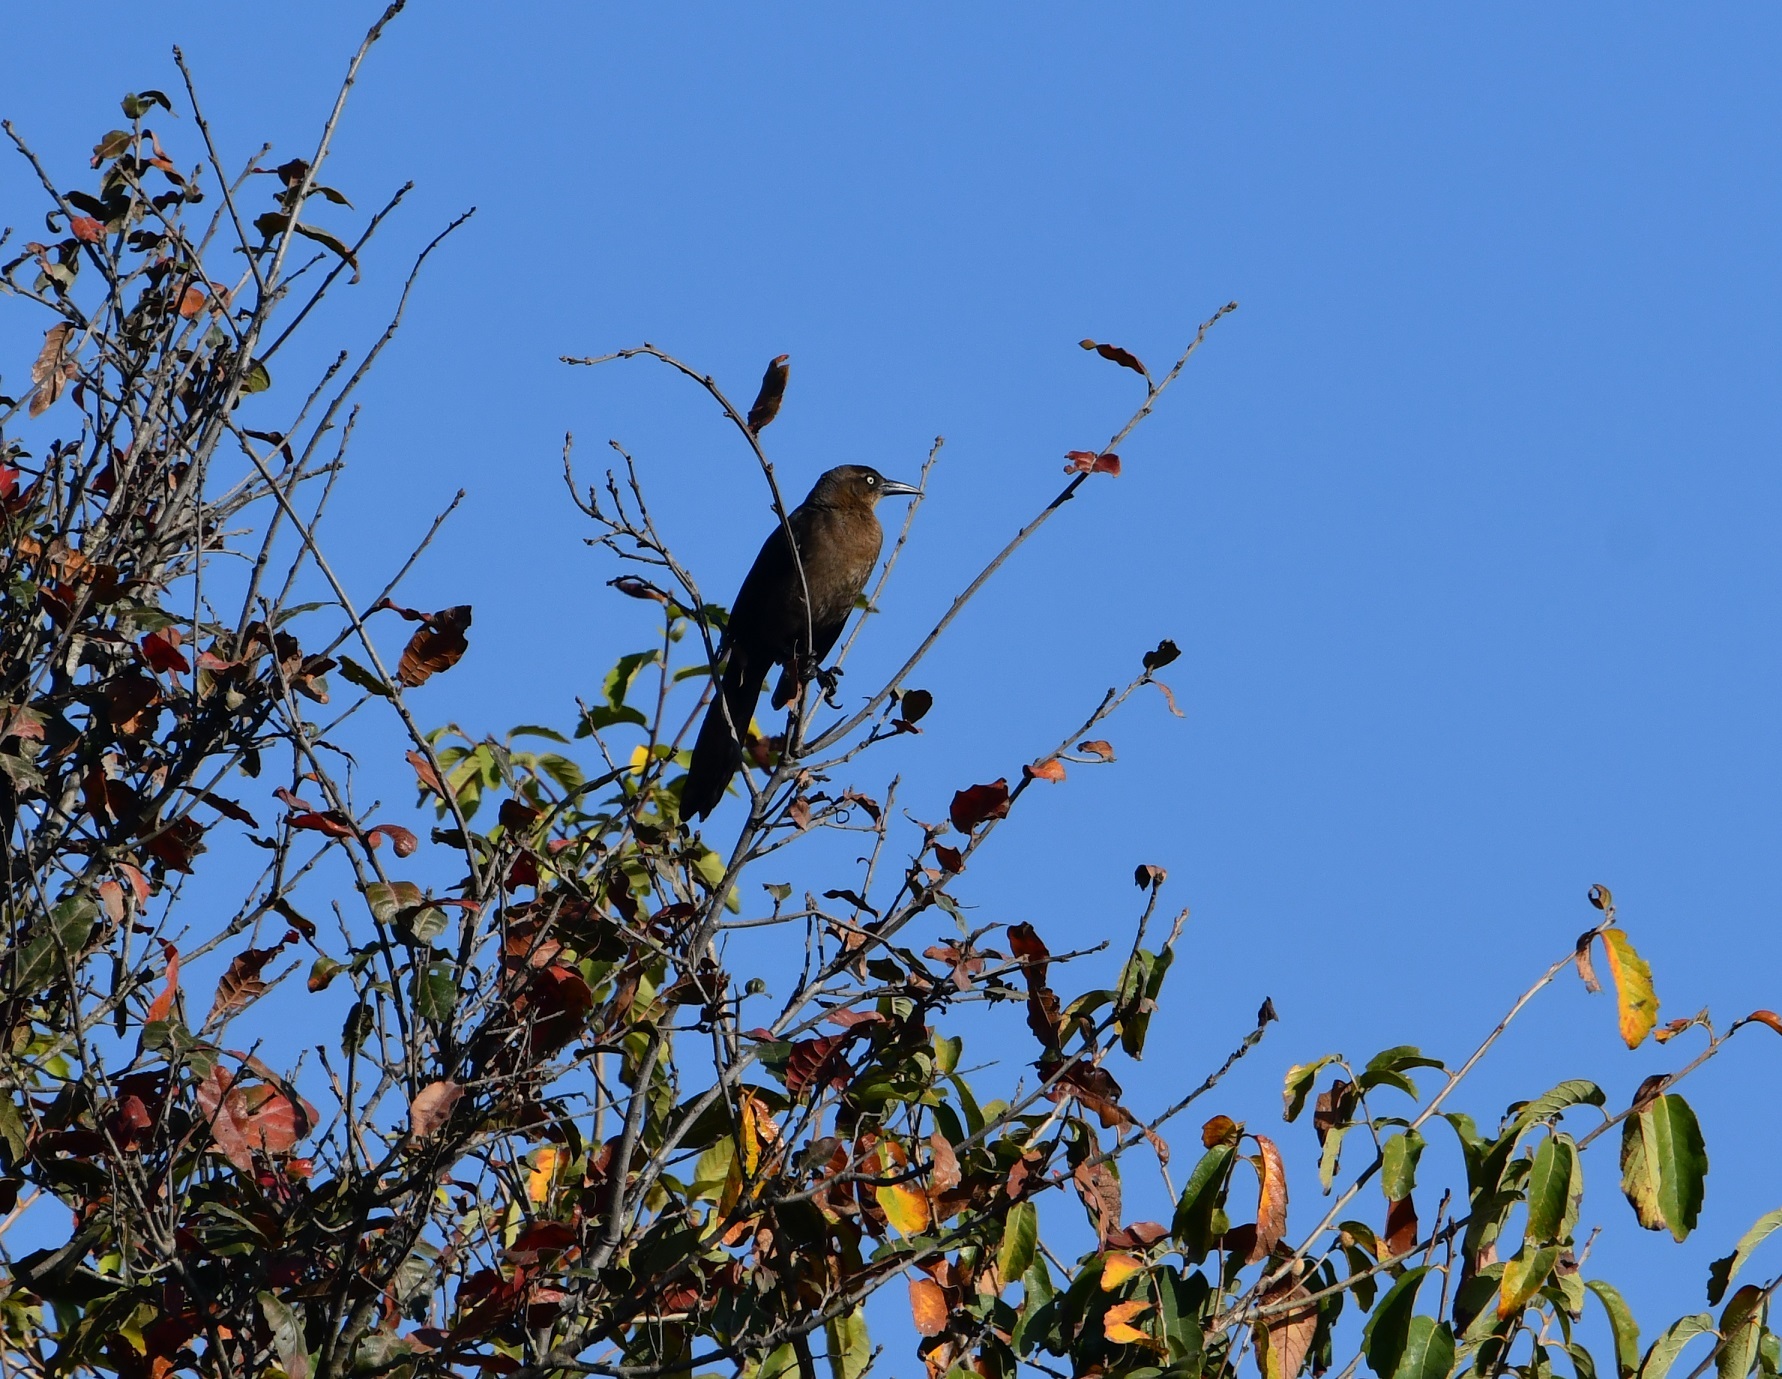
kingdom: Animalia
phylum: Chordata
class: Aves
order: Passeriformes
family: Icteridae
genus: Quiscalus
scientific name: Quiscalus mexicanus
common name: Great-tailed grackle
